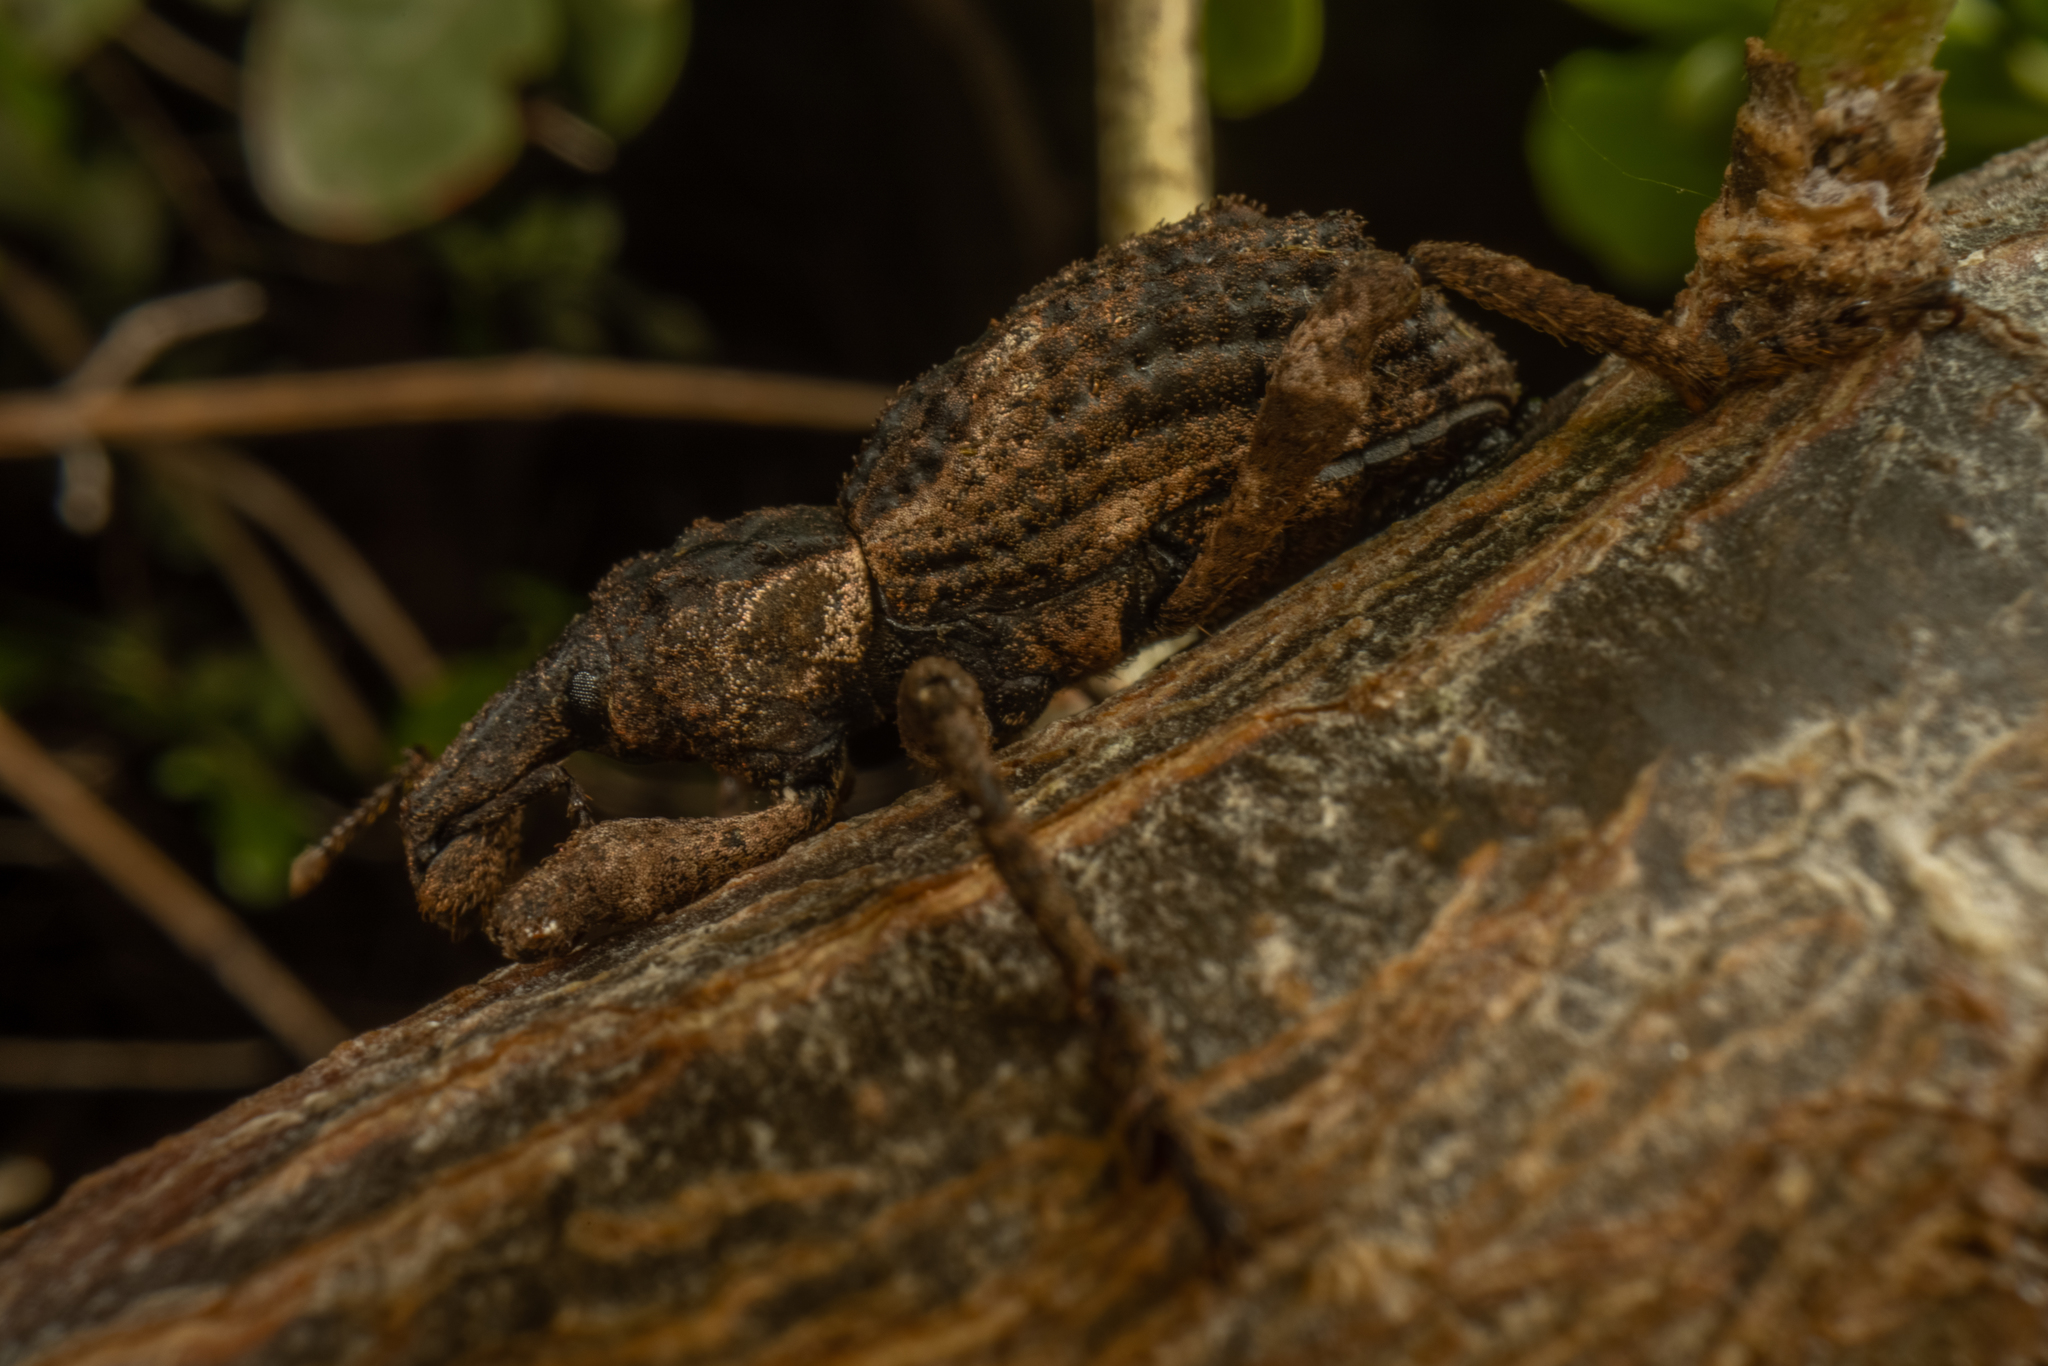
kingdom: Animalia
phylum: Arthropoda
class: Insecta
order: Coleoptera
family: Curculionidae
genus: Anagotus
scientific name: Anagotus turbotti
